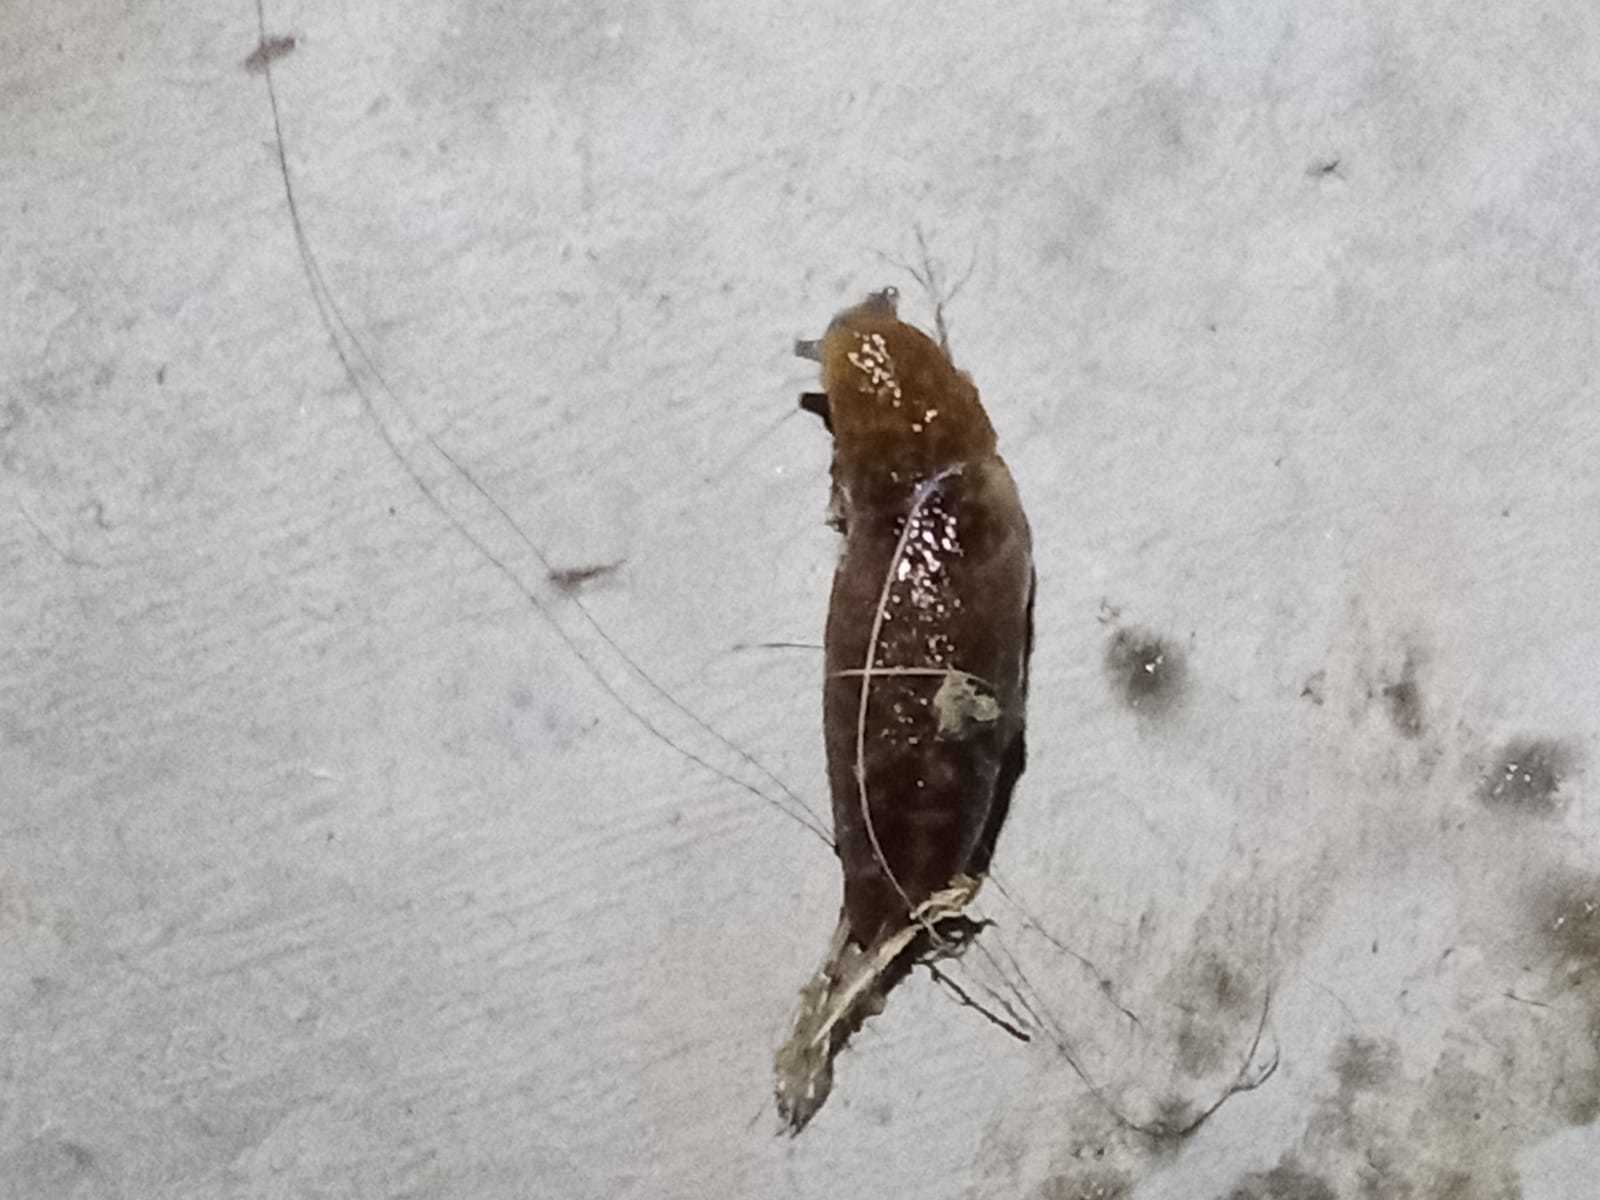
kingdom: Animalia
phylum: Mollusca
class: Gastropoda
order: Stylommatophora
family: Limacidae
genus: Limacus
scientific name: Limacus flavus
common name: Yellow gardenslug
